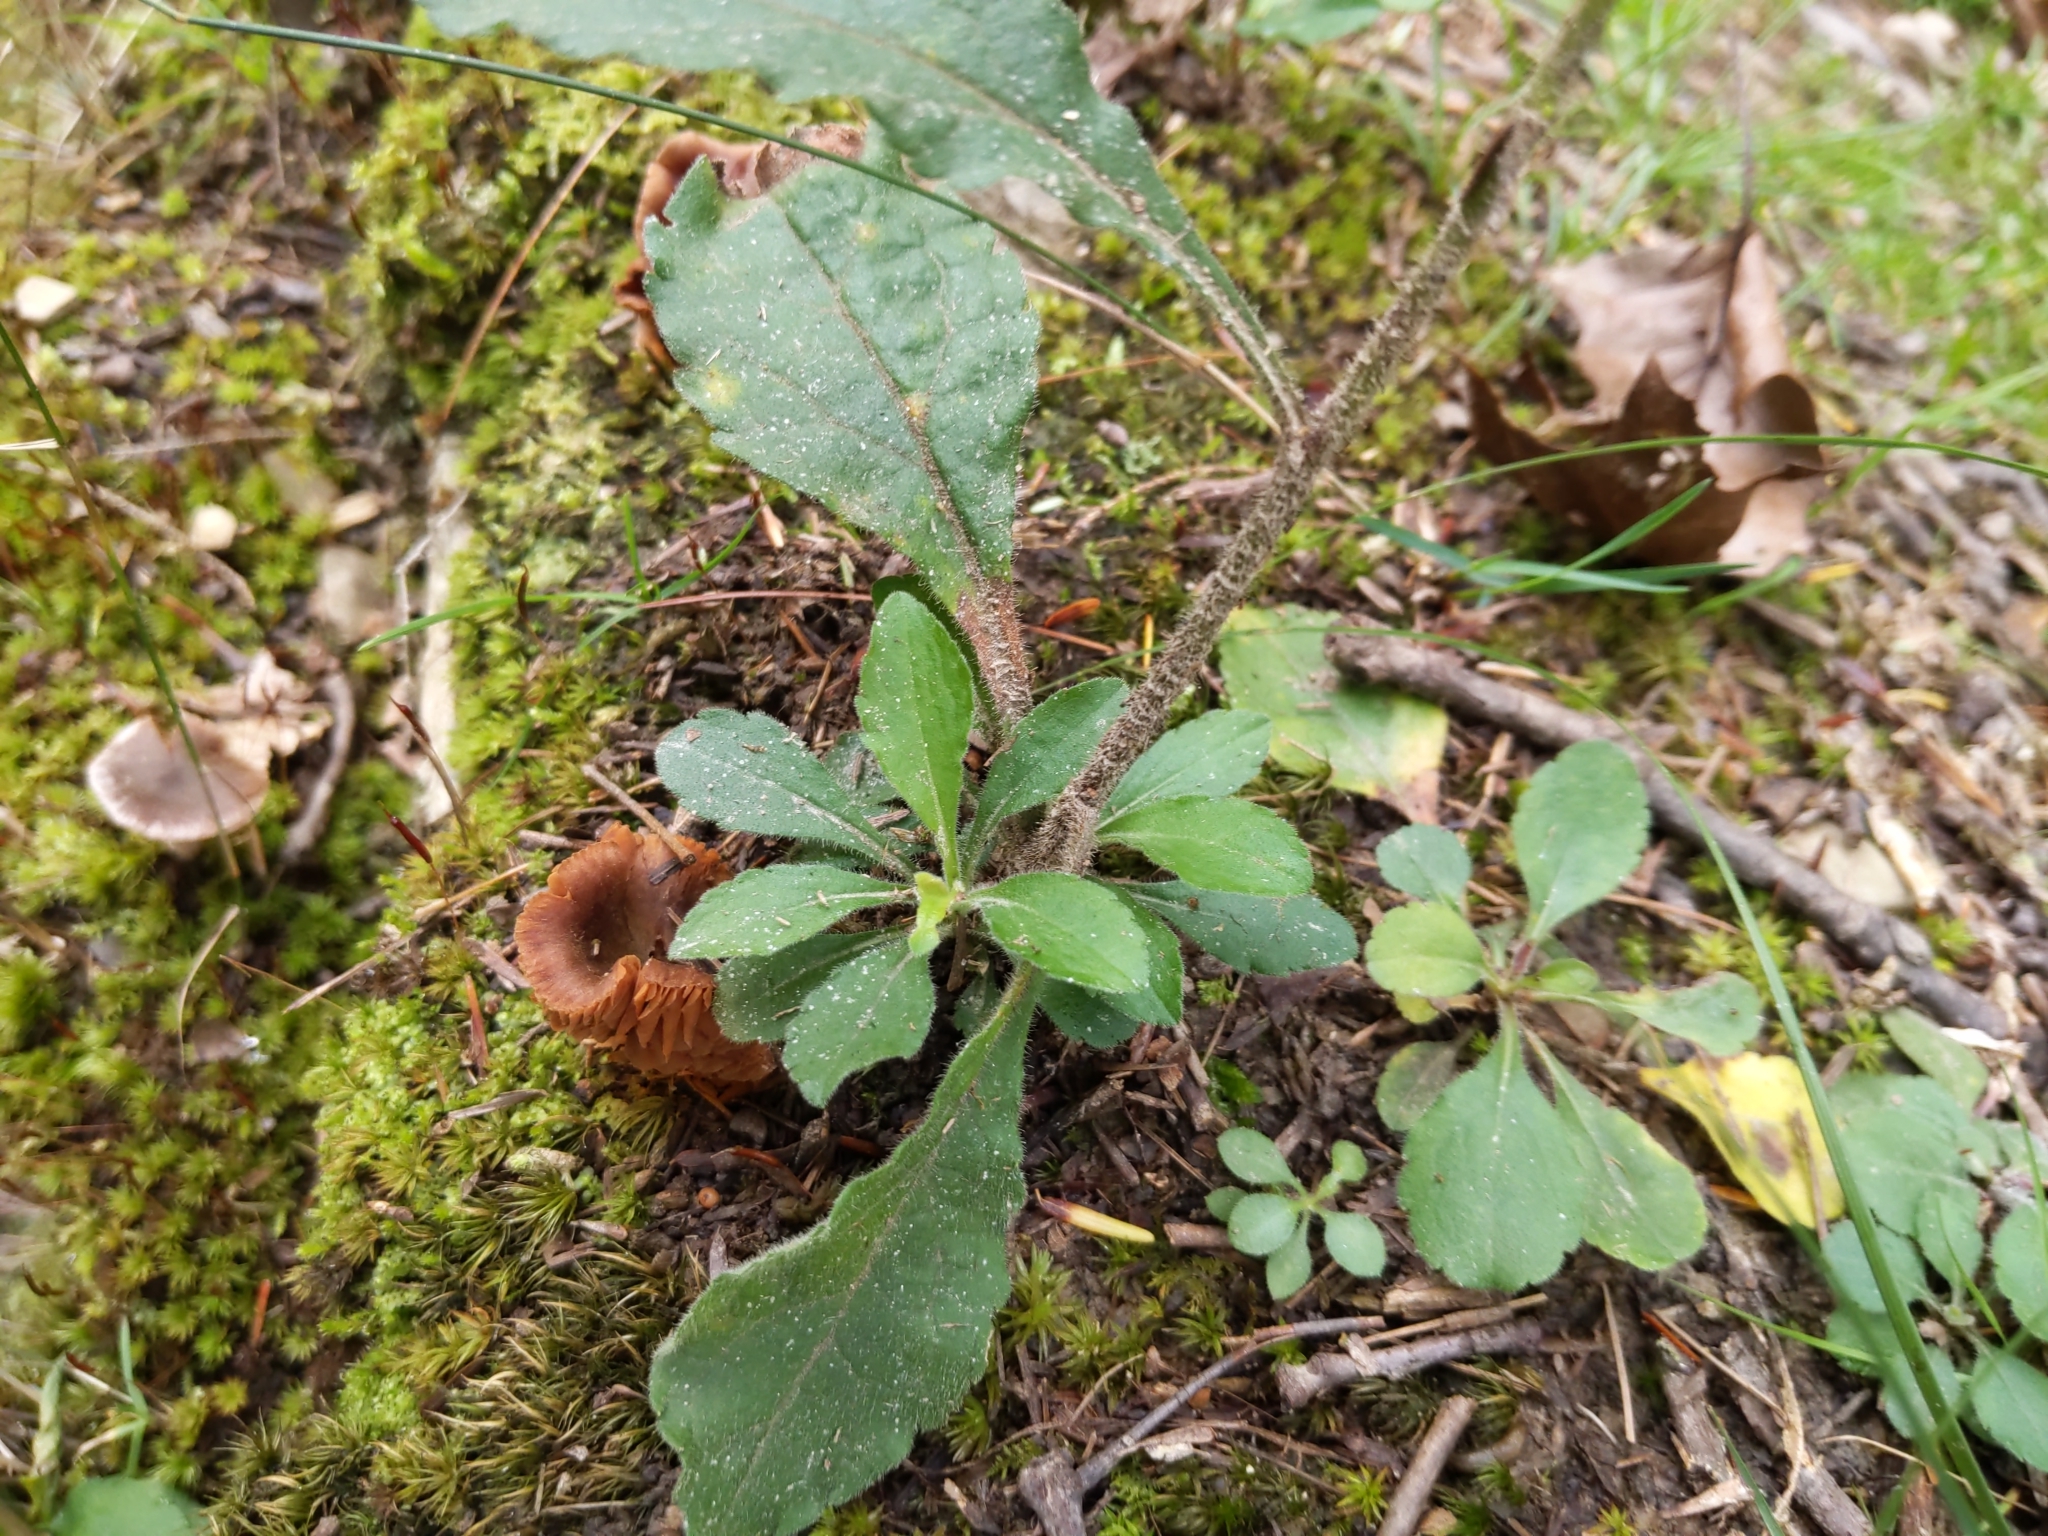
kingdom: Plantae
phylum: Tracheophyta
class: Magnoliopsida
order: Asterales
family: Asteraceae
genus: Solidago
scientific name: Solidago bicolor
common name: Silverrod
